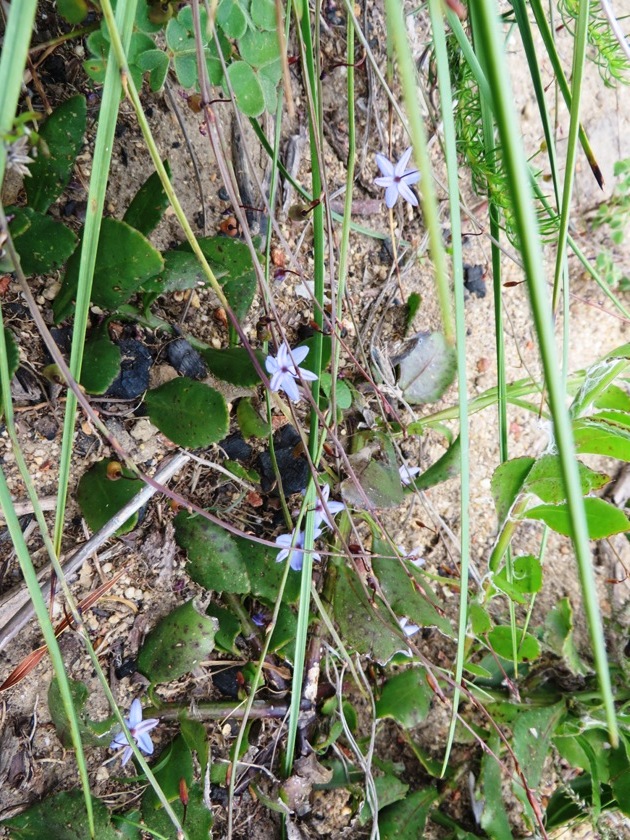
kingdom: Plantae
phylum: Tracheophyta
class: Liliopsida
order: Asparagales
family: Asphodelaceae
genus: Caesia
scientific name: Caesia contorta
